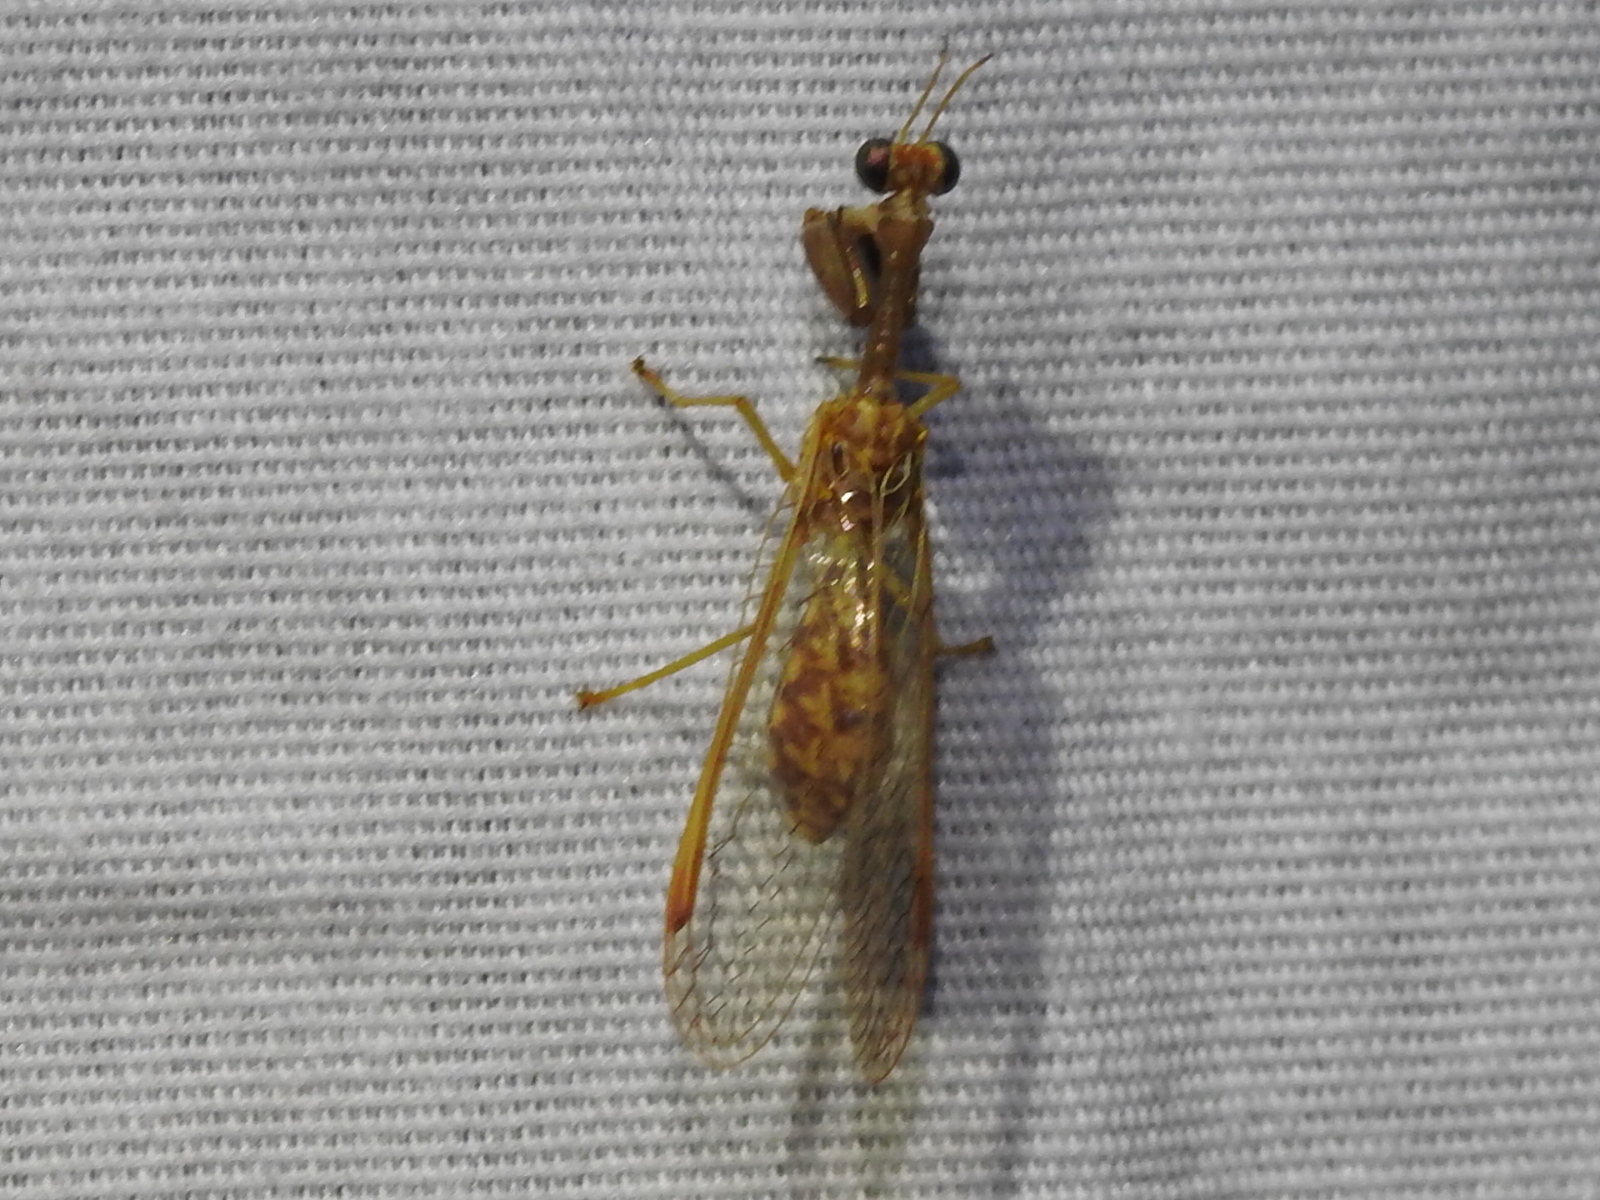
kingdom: Animalia
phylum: Arthropoda
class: Insecta
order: Neuroptera
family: Mantispidae
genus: Dicromantispa
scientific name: Dicromantispa sayi
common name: Say's mantidfly
